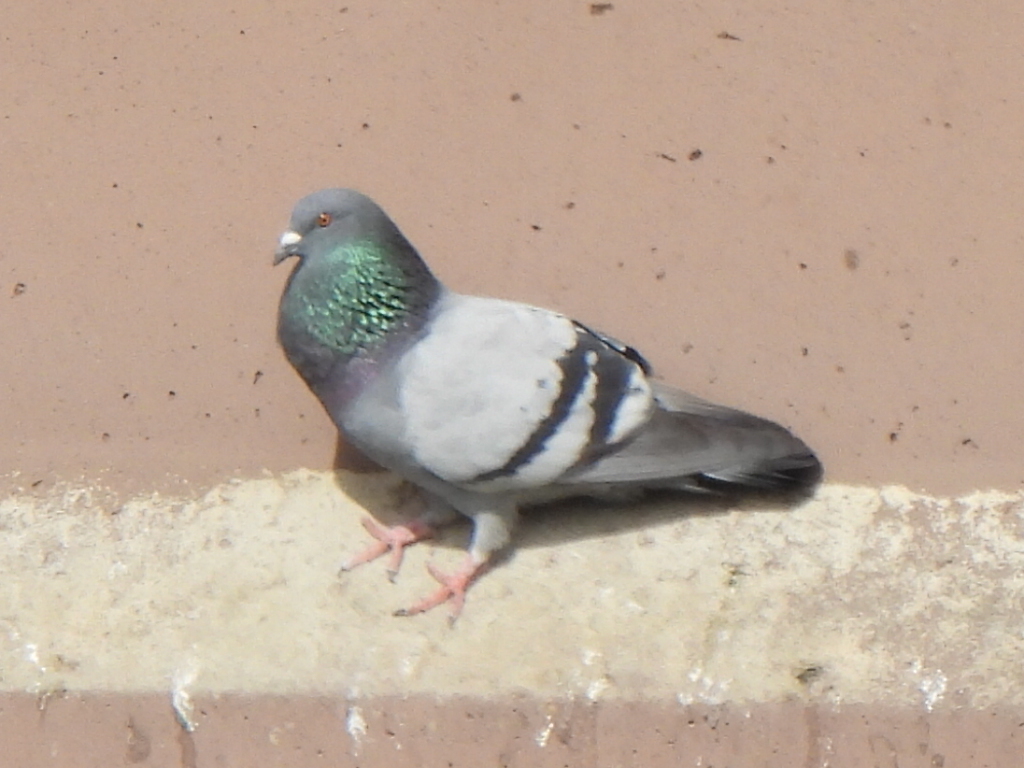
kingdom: Animalia
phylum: Chordata
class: Aves
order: Columbiformes
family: Columbidae
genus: Columba
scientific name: Columba livia
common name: Rock pigeon
